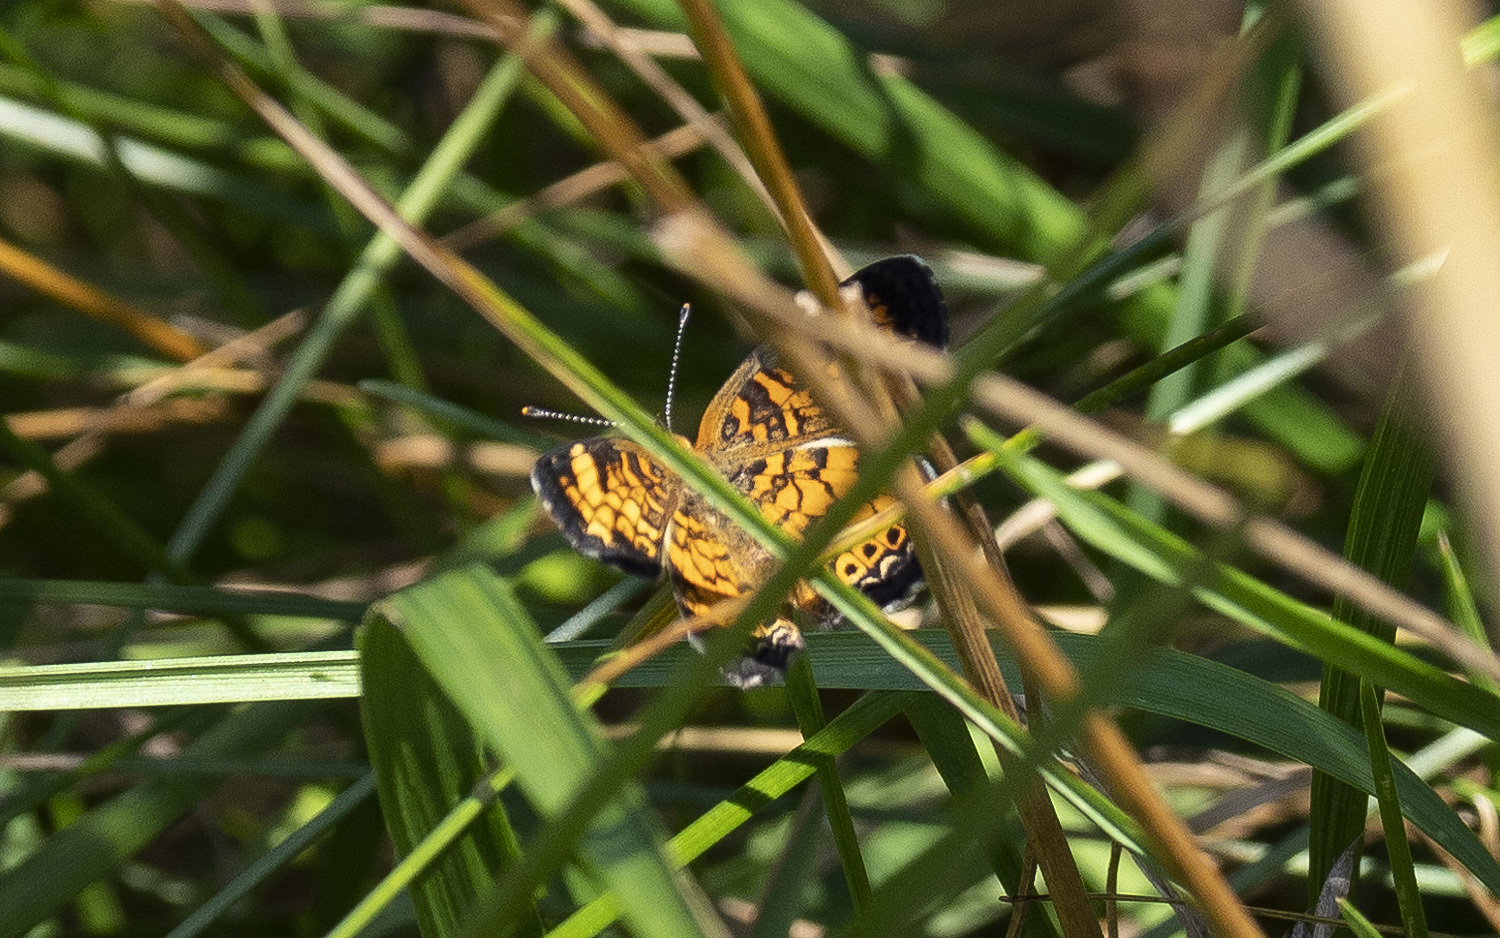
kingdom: Animalia
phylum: Arthropoda
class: Insecta
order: Lepidoptera
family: Nymphalidae
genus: Phyciodes
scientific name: Phyciodes tharos
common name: Pearl crescent
